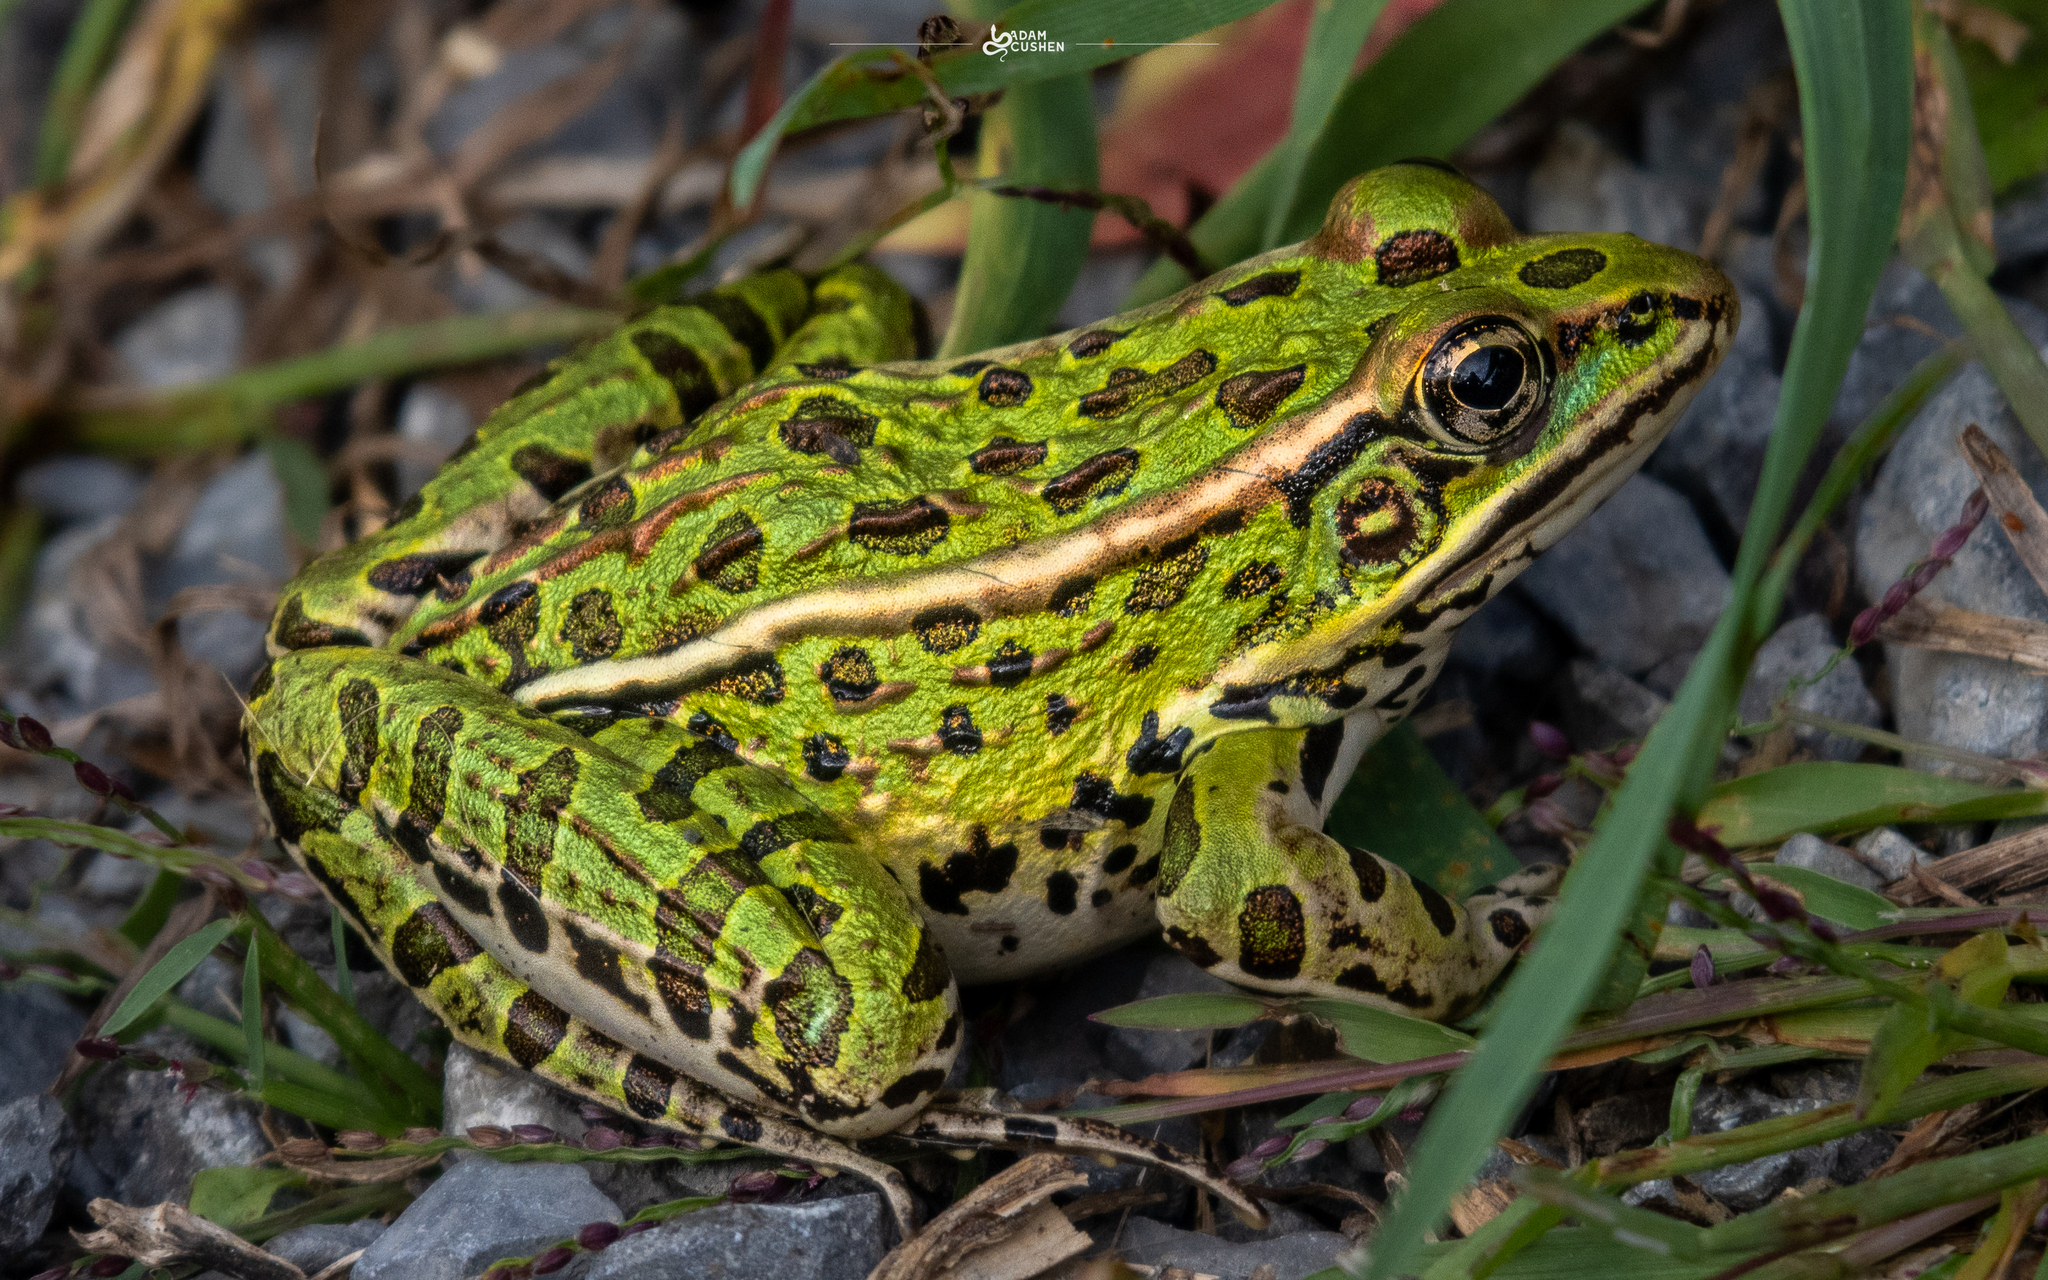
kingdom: Animalia
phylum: Chordata
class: Amphibia
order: Anura
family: Ranidae
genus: Lithobates
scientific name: Lithobates pipiens
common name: Northern leopard frog
